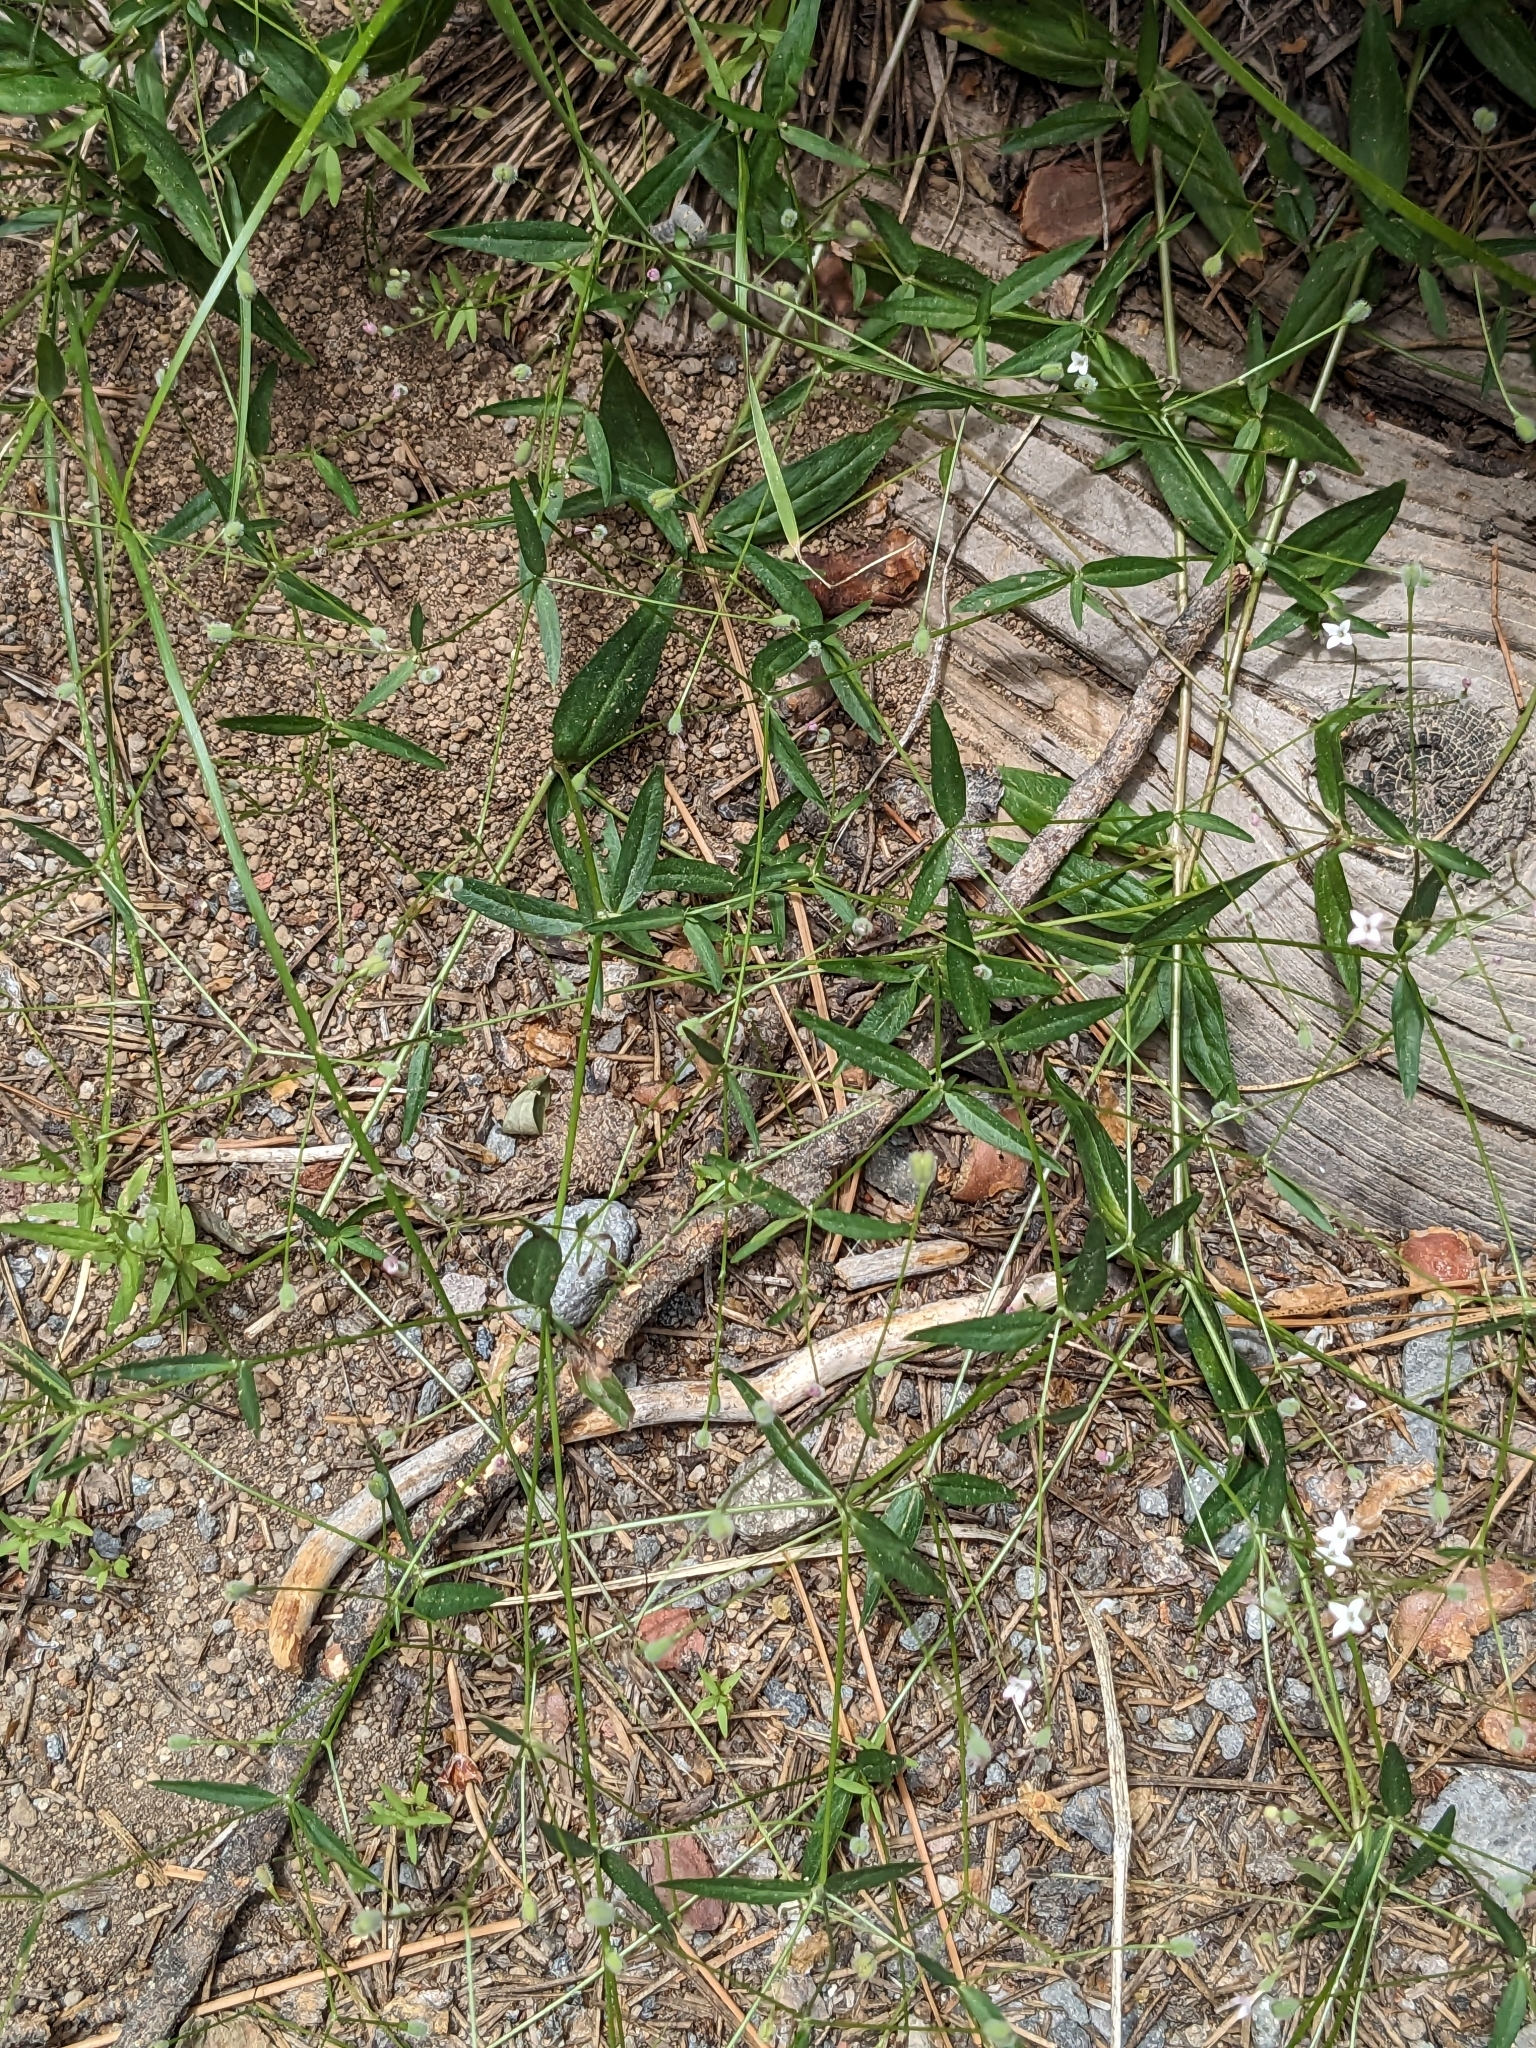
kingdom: Plantae
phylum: Tracheophyta
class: Magnoliopsida
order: Gentianales
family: Rubiaceae
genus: Kelloggia
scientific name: Kelloggia galioides
